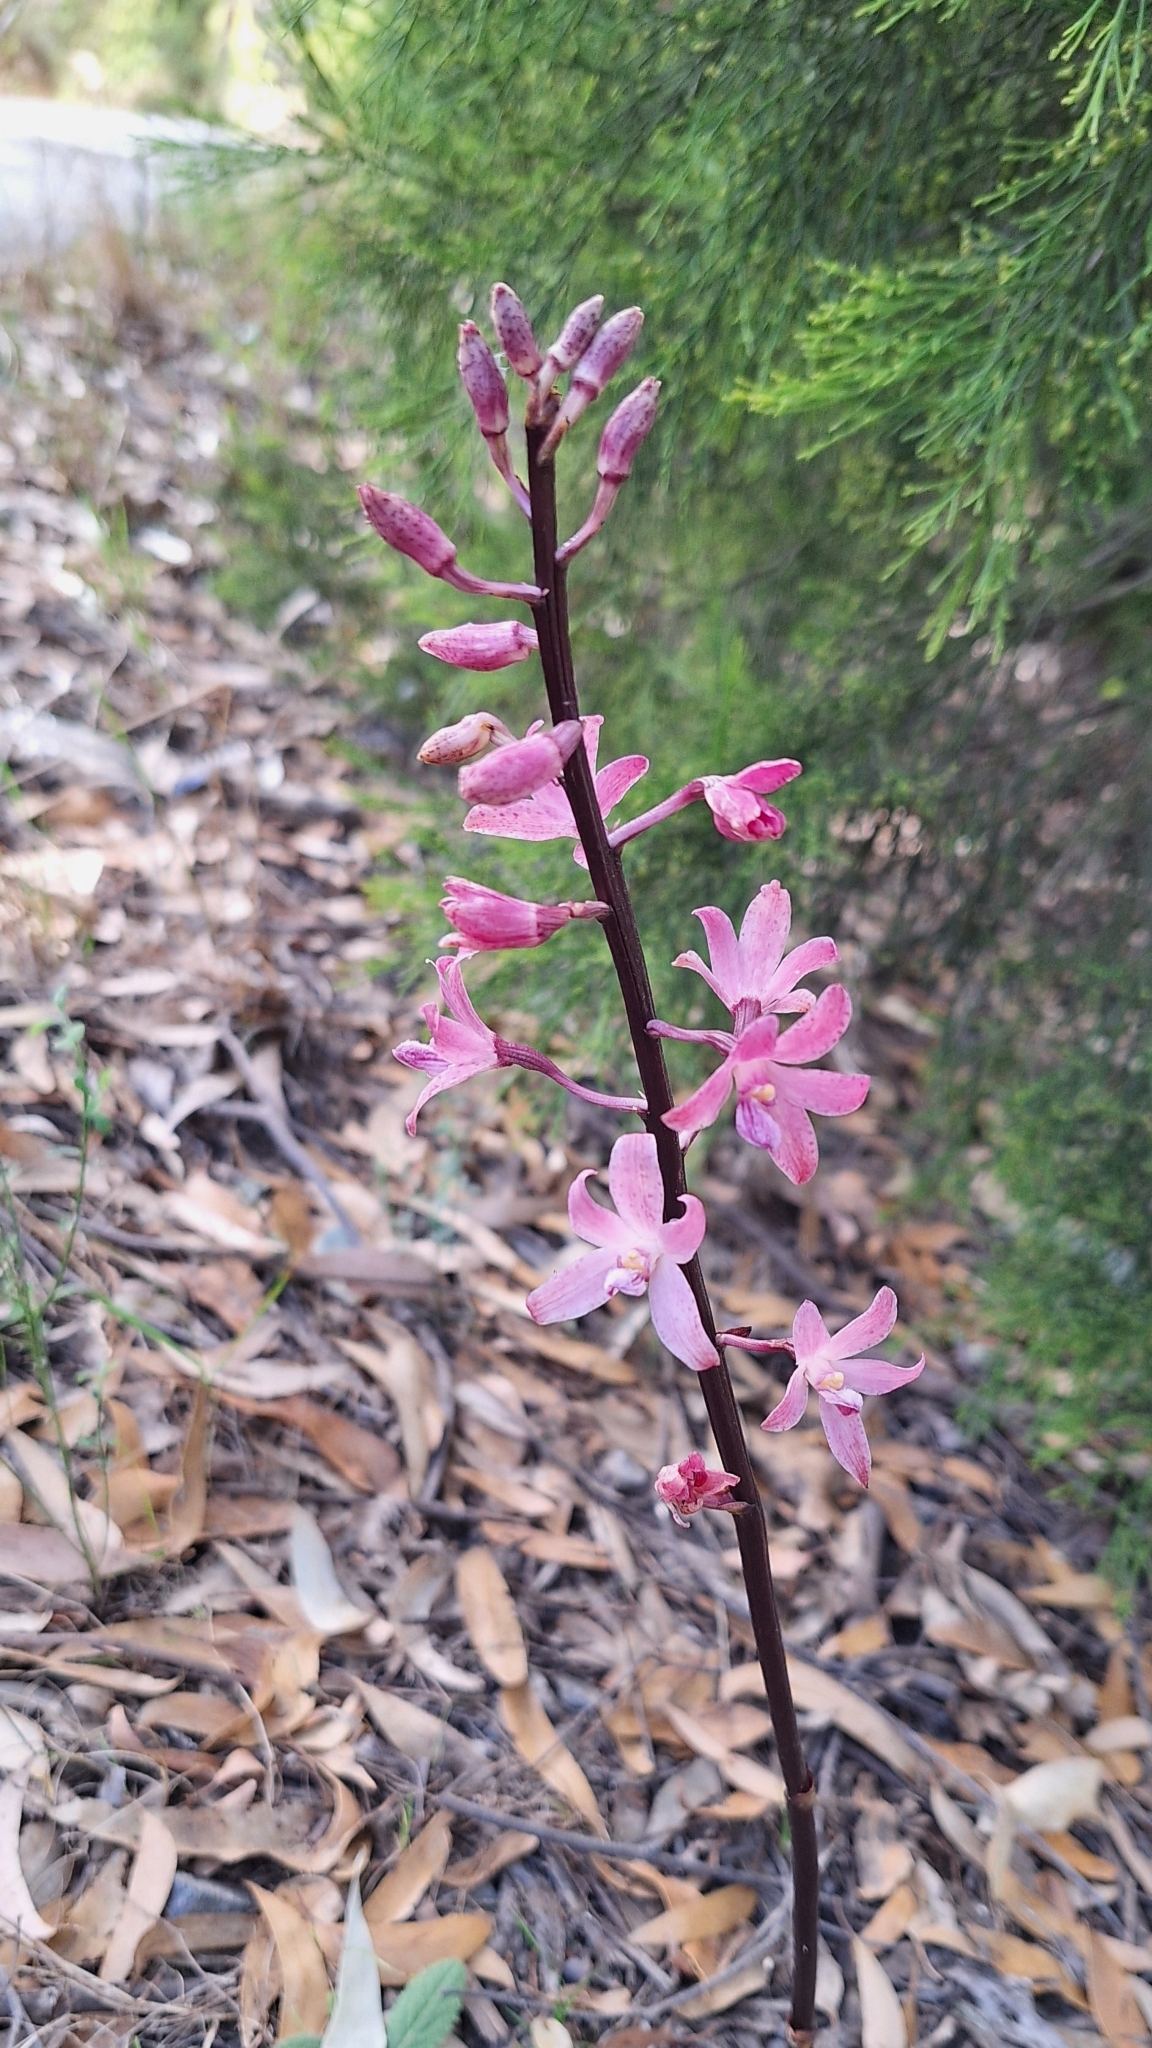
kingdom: Plantae
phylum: Tracheophyta
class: Liliopsida
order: Asparagales
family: Orchidaceae
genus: Dipodium
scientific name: Dipodium roseum
